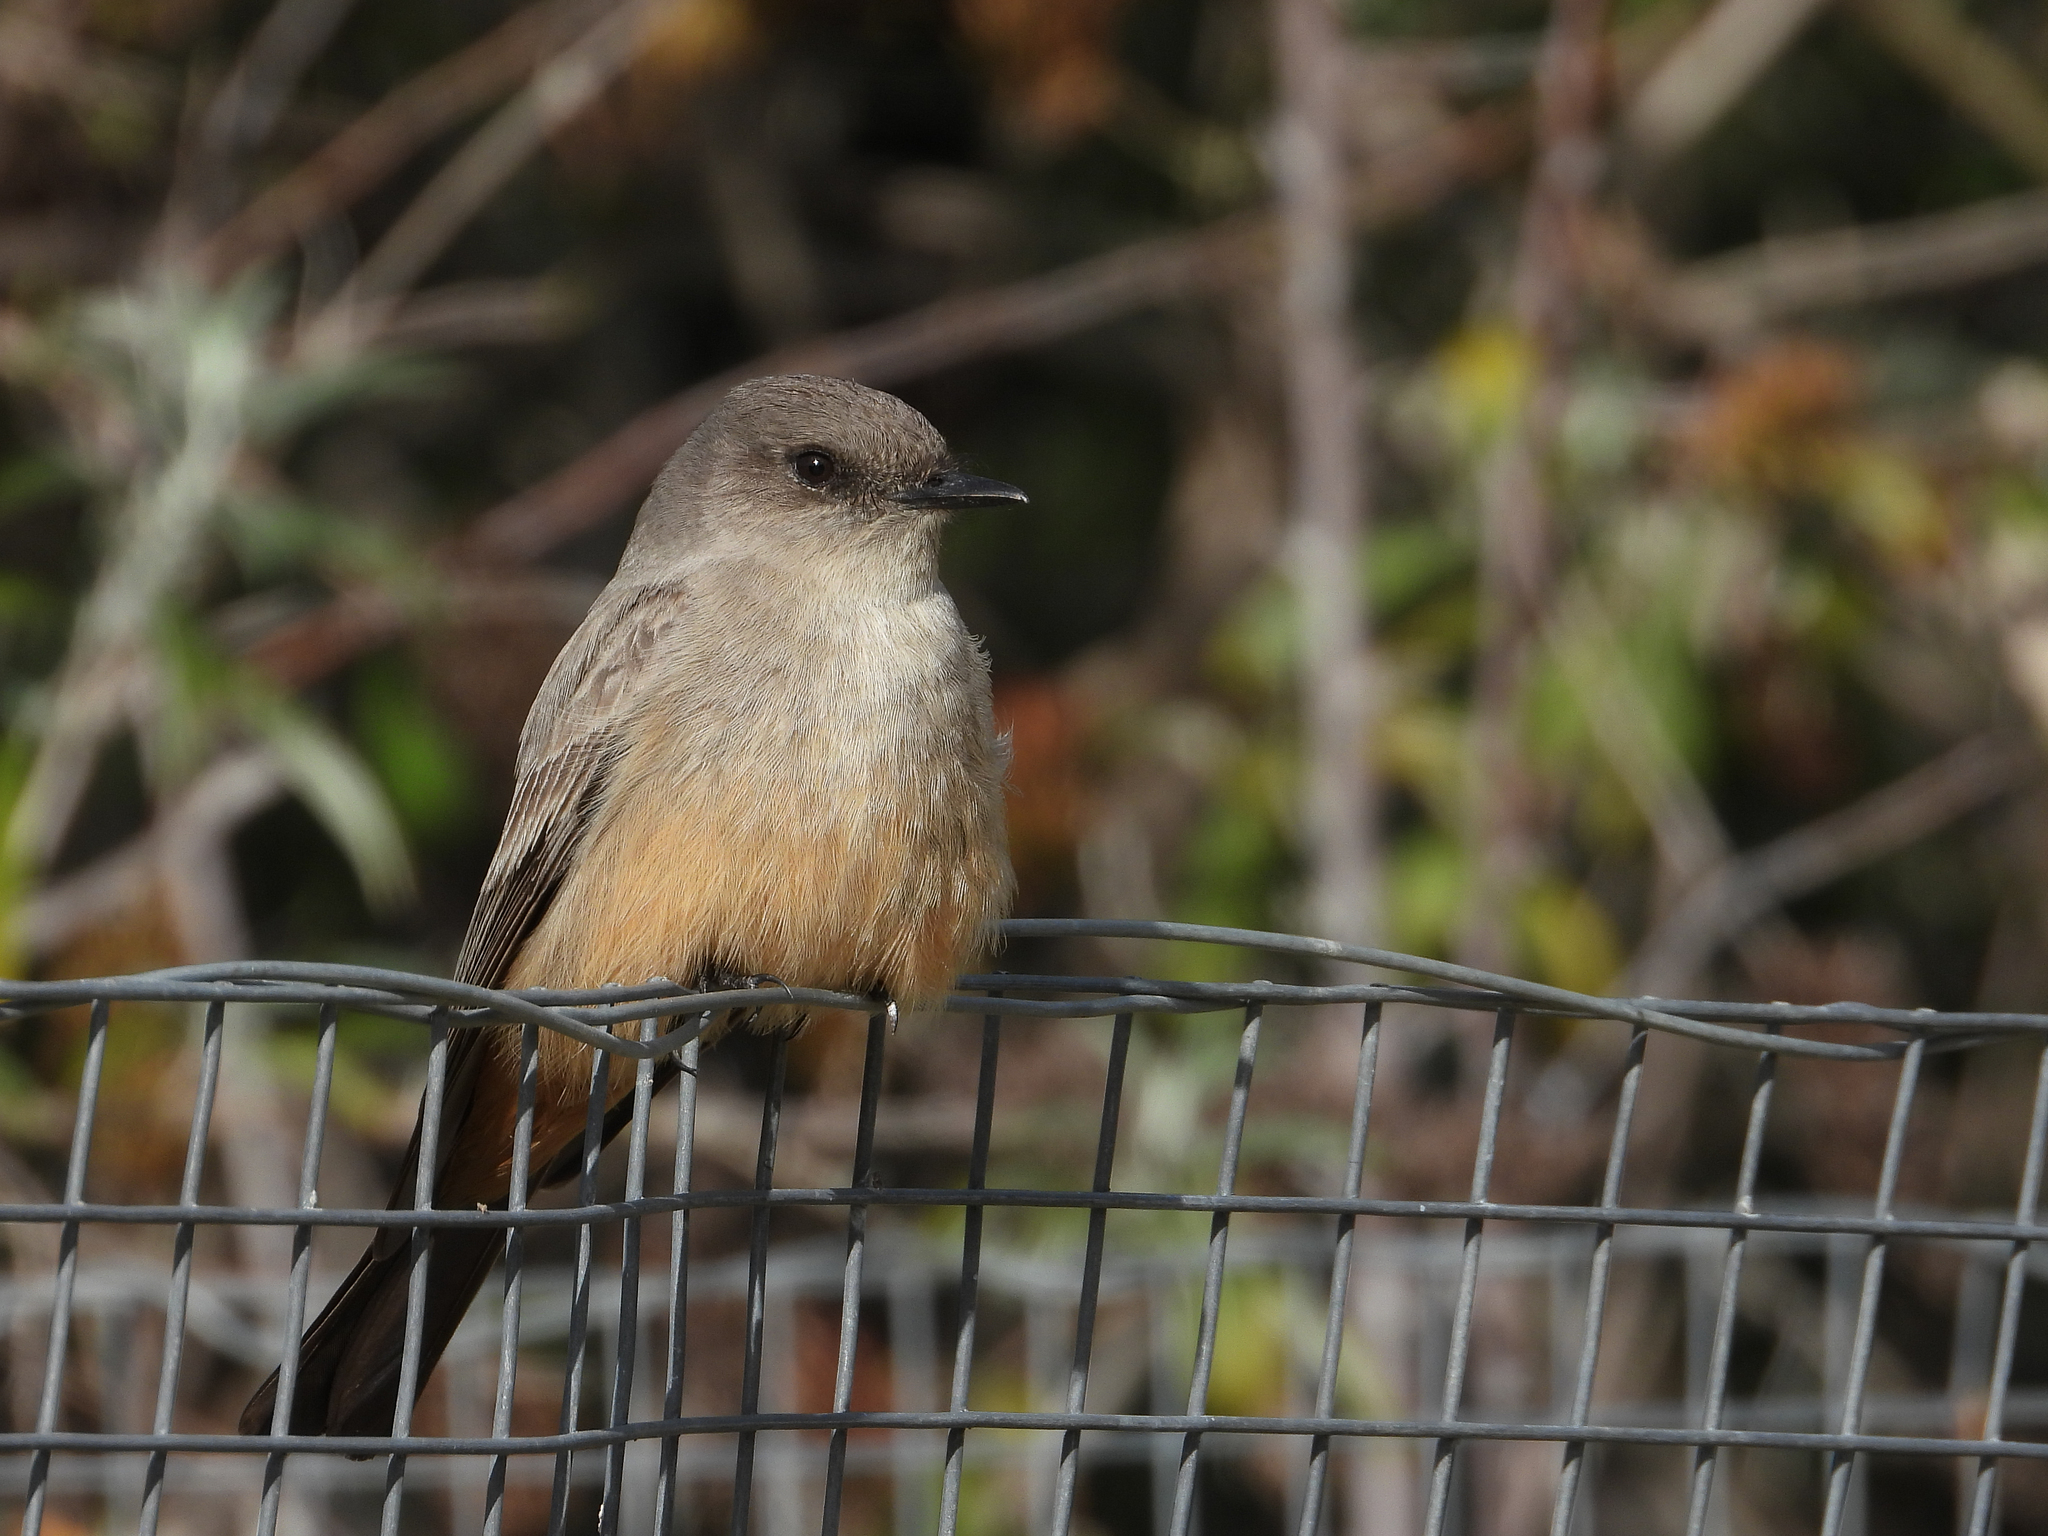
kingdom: Animalia
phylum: Chordata
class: Aves
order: Passeriformes
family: Tyrannidae
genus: Sayornis
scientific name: Sayornis saya
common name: Say's phoebe
